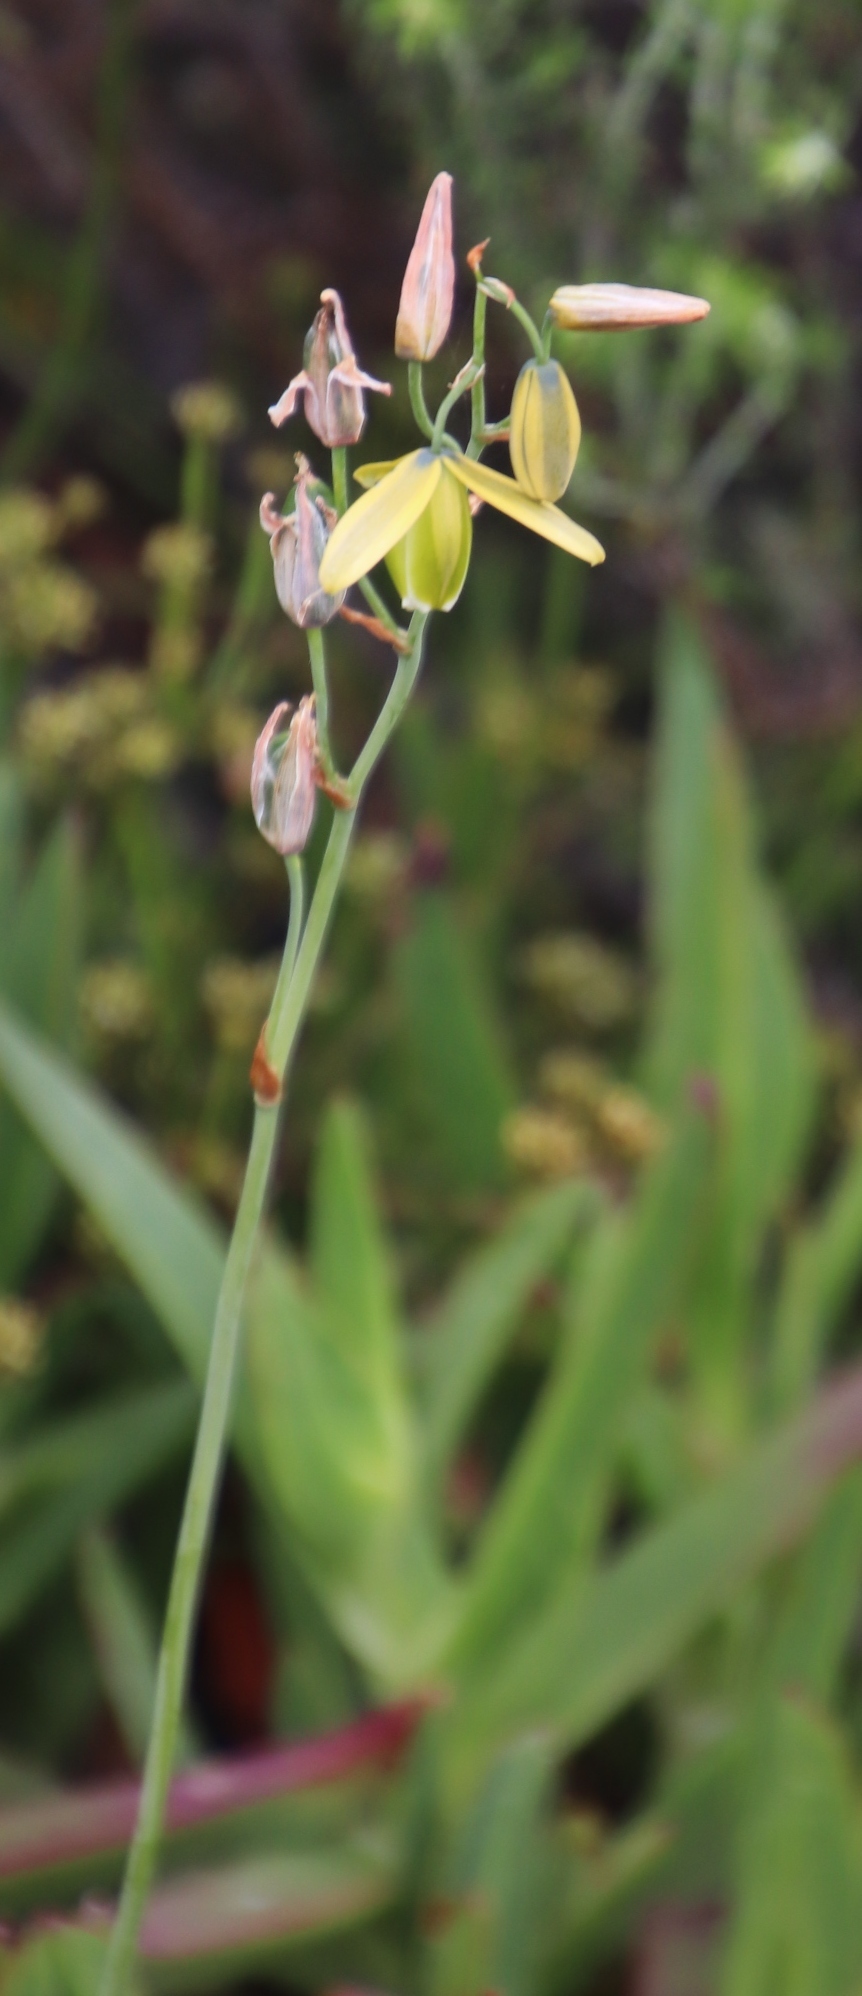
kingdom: Plantae
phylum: Tracheophyta
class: Liliopsida
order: Asparagales
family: Asparagaceae
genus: Albuca
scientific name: Albuca cooperi
